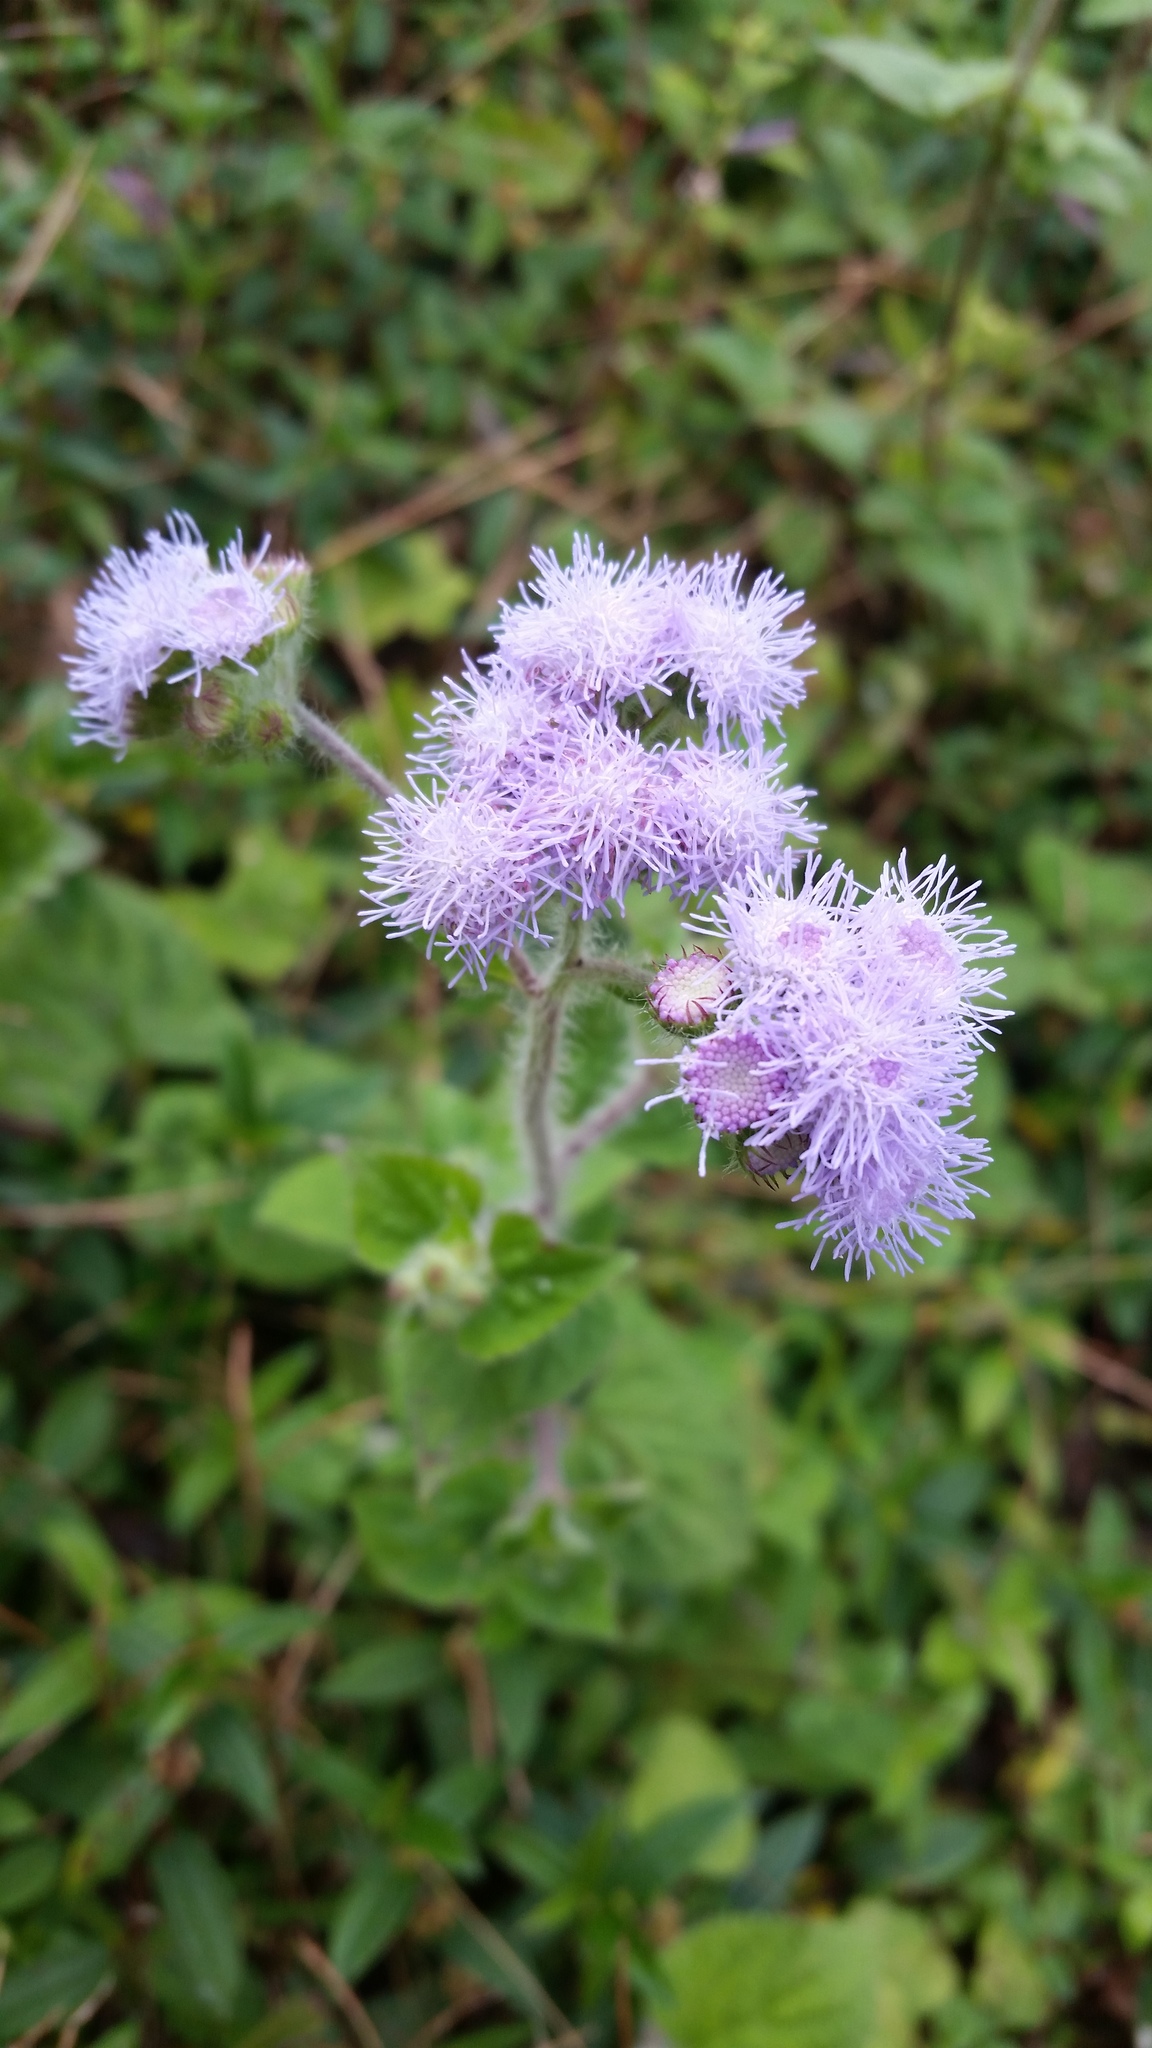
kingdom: Plantae
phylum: Tracheophyta
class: Magnoliopsida
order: Asterales
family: Asteraceae
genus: Ageratum
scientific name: Ageratum houstonianum
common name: Bluemink
